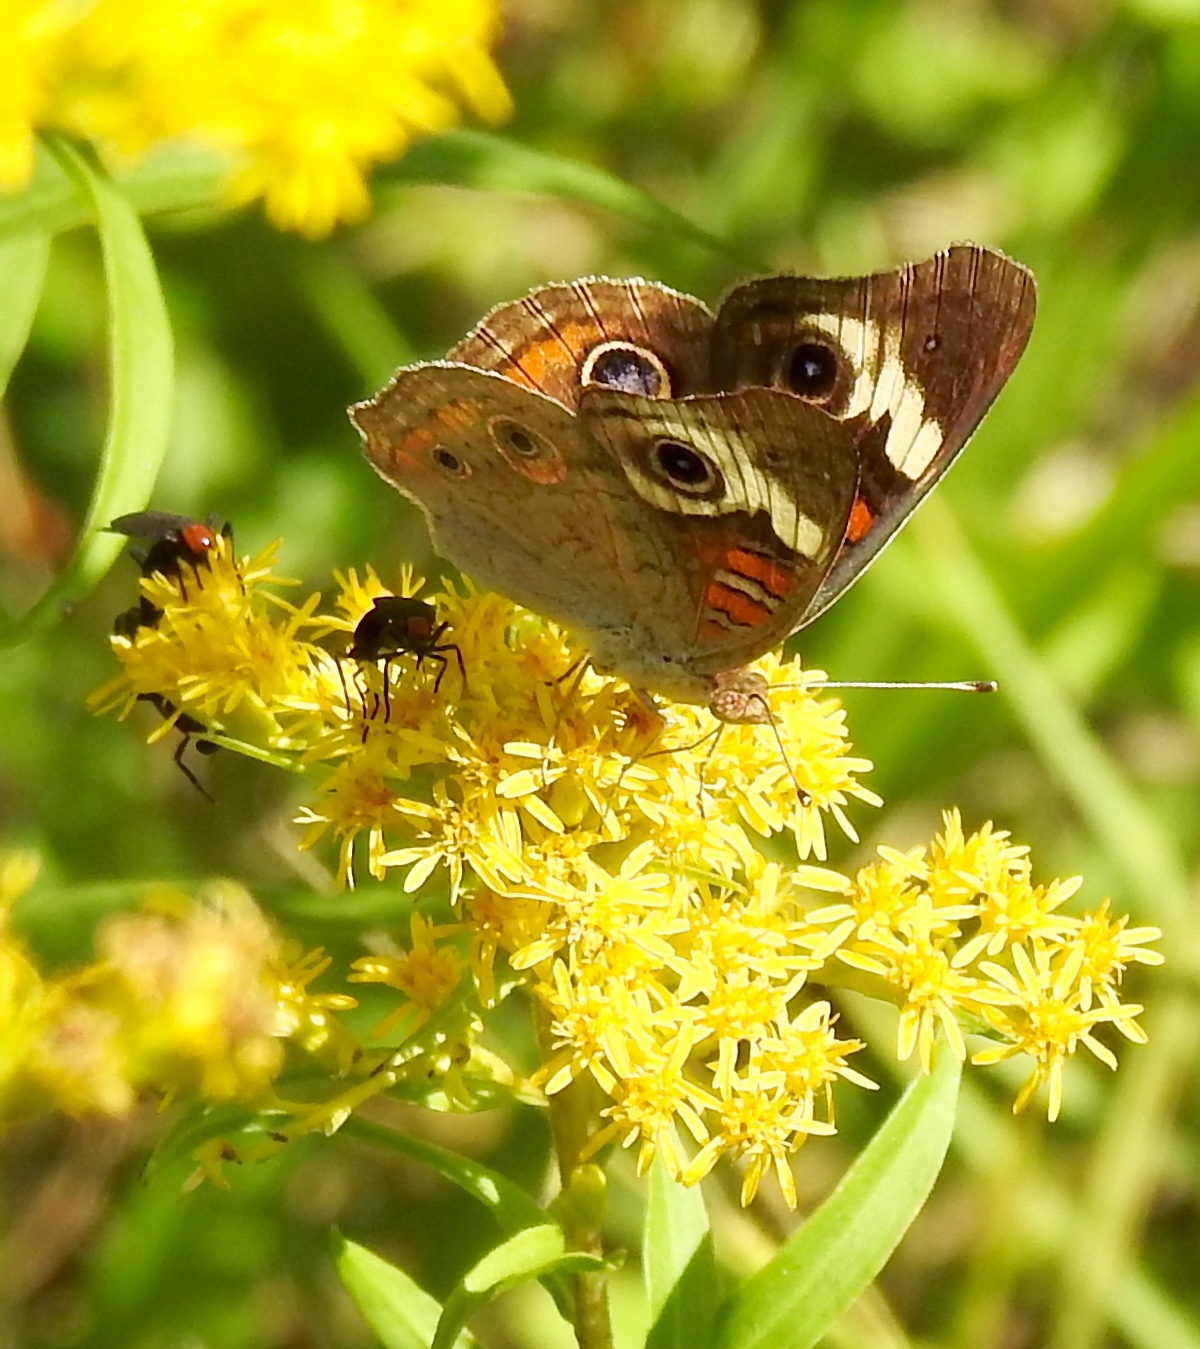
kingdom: Animalia
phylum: Arthropoda
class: Insecta
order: Lepidoptera
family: Nymphalidae
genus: Junonia
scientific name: Junonia coenia
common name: Common buckeye
